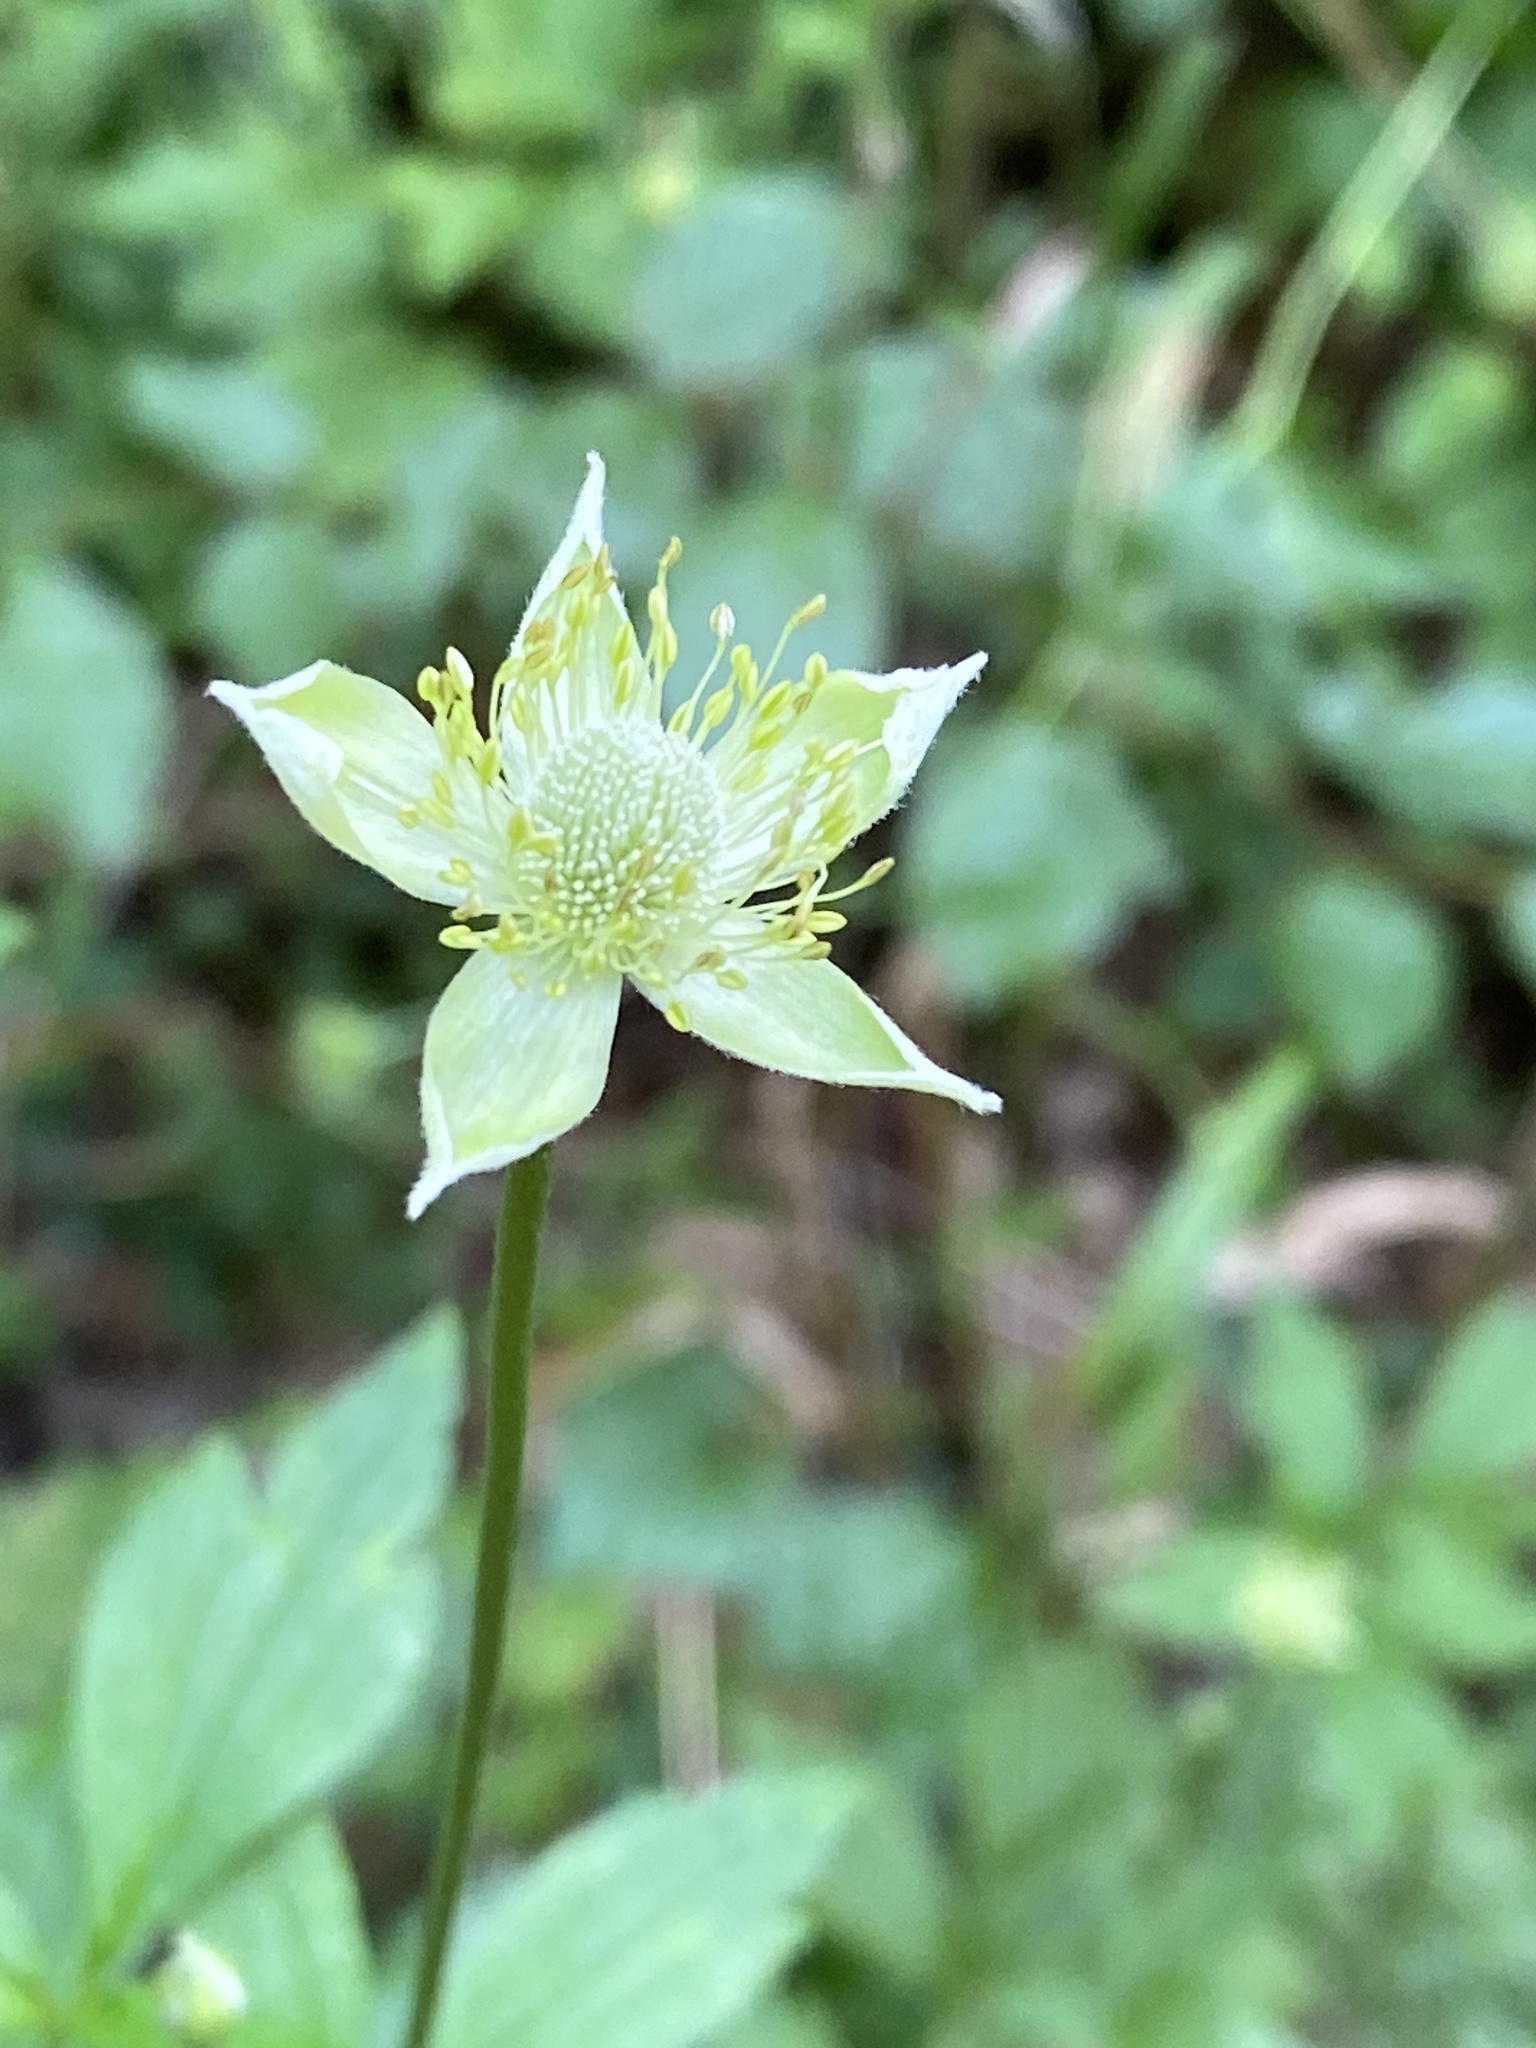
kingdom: Plantae
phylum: Tracheophyta
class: Magnoliopsida
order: Ranunculales
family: Ranunculaceae
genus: Anemone
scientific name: Anemone virginiana
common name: Tall anemone
